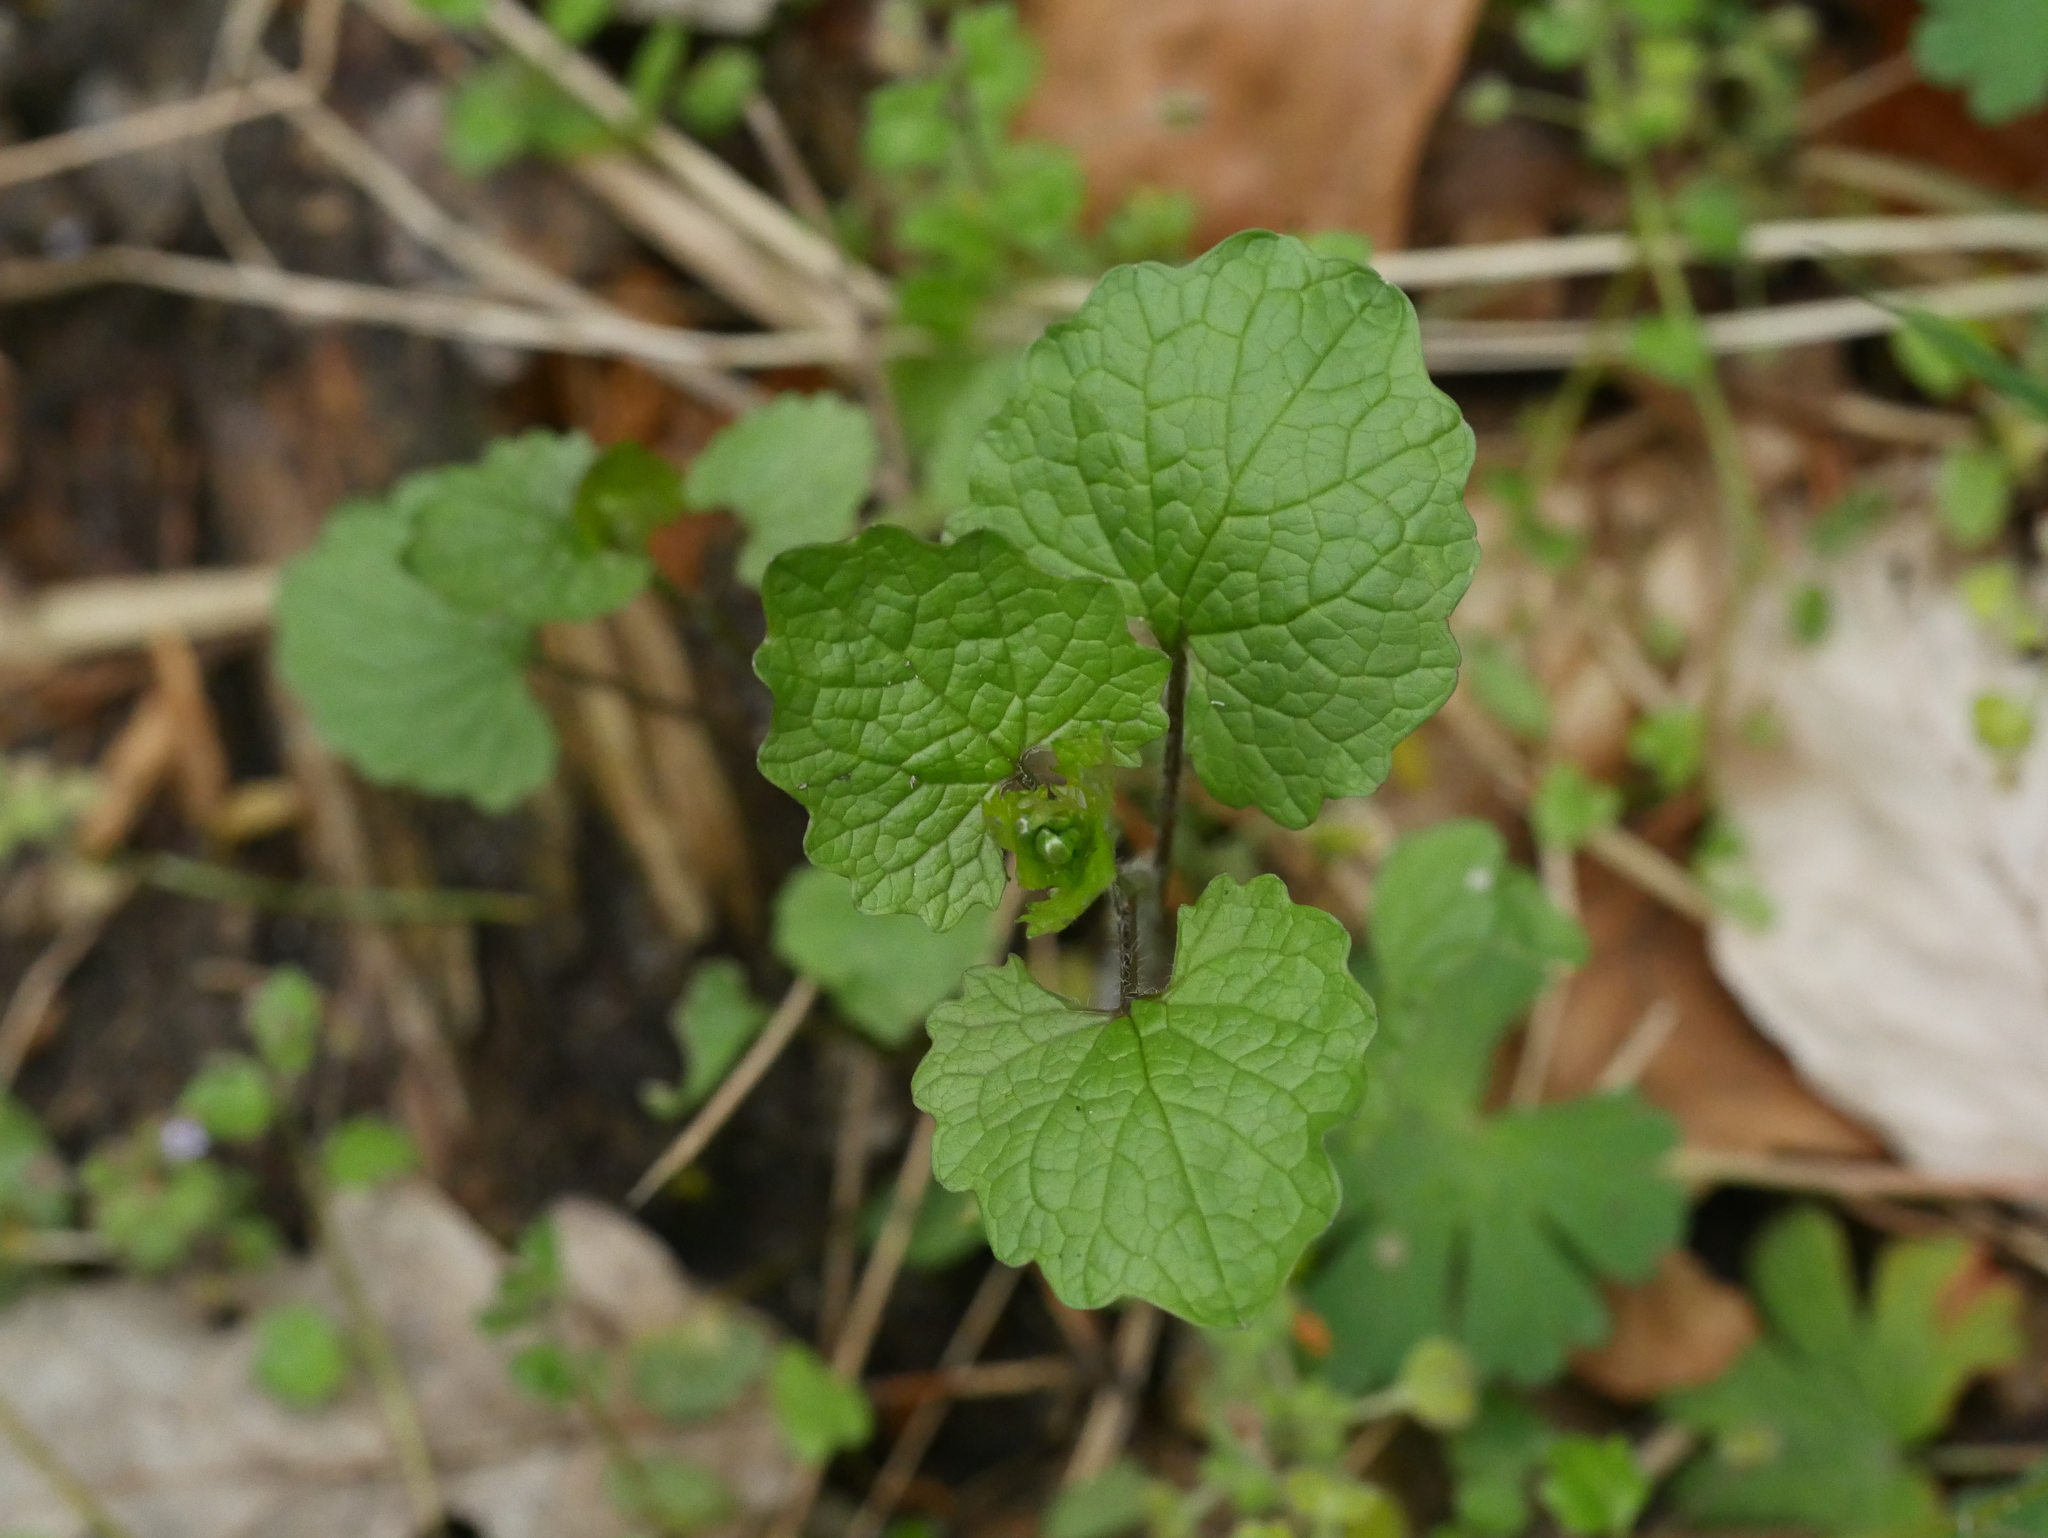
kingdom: Plantae
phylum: Tracheophyta
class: Magnoliopsida
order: Brassicales
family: Brassicaceae
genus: Alliaria
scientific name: Alliaria petiolata
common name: Garlic mustard
